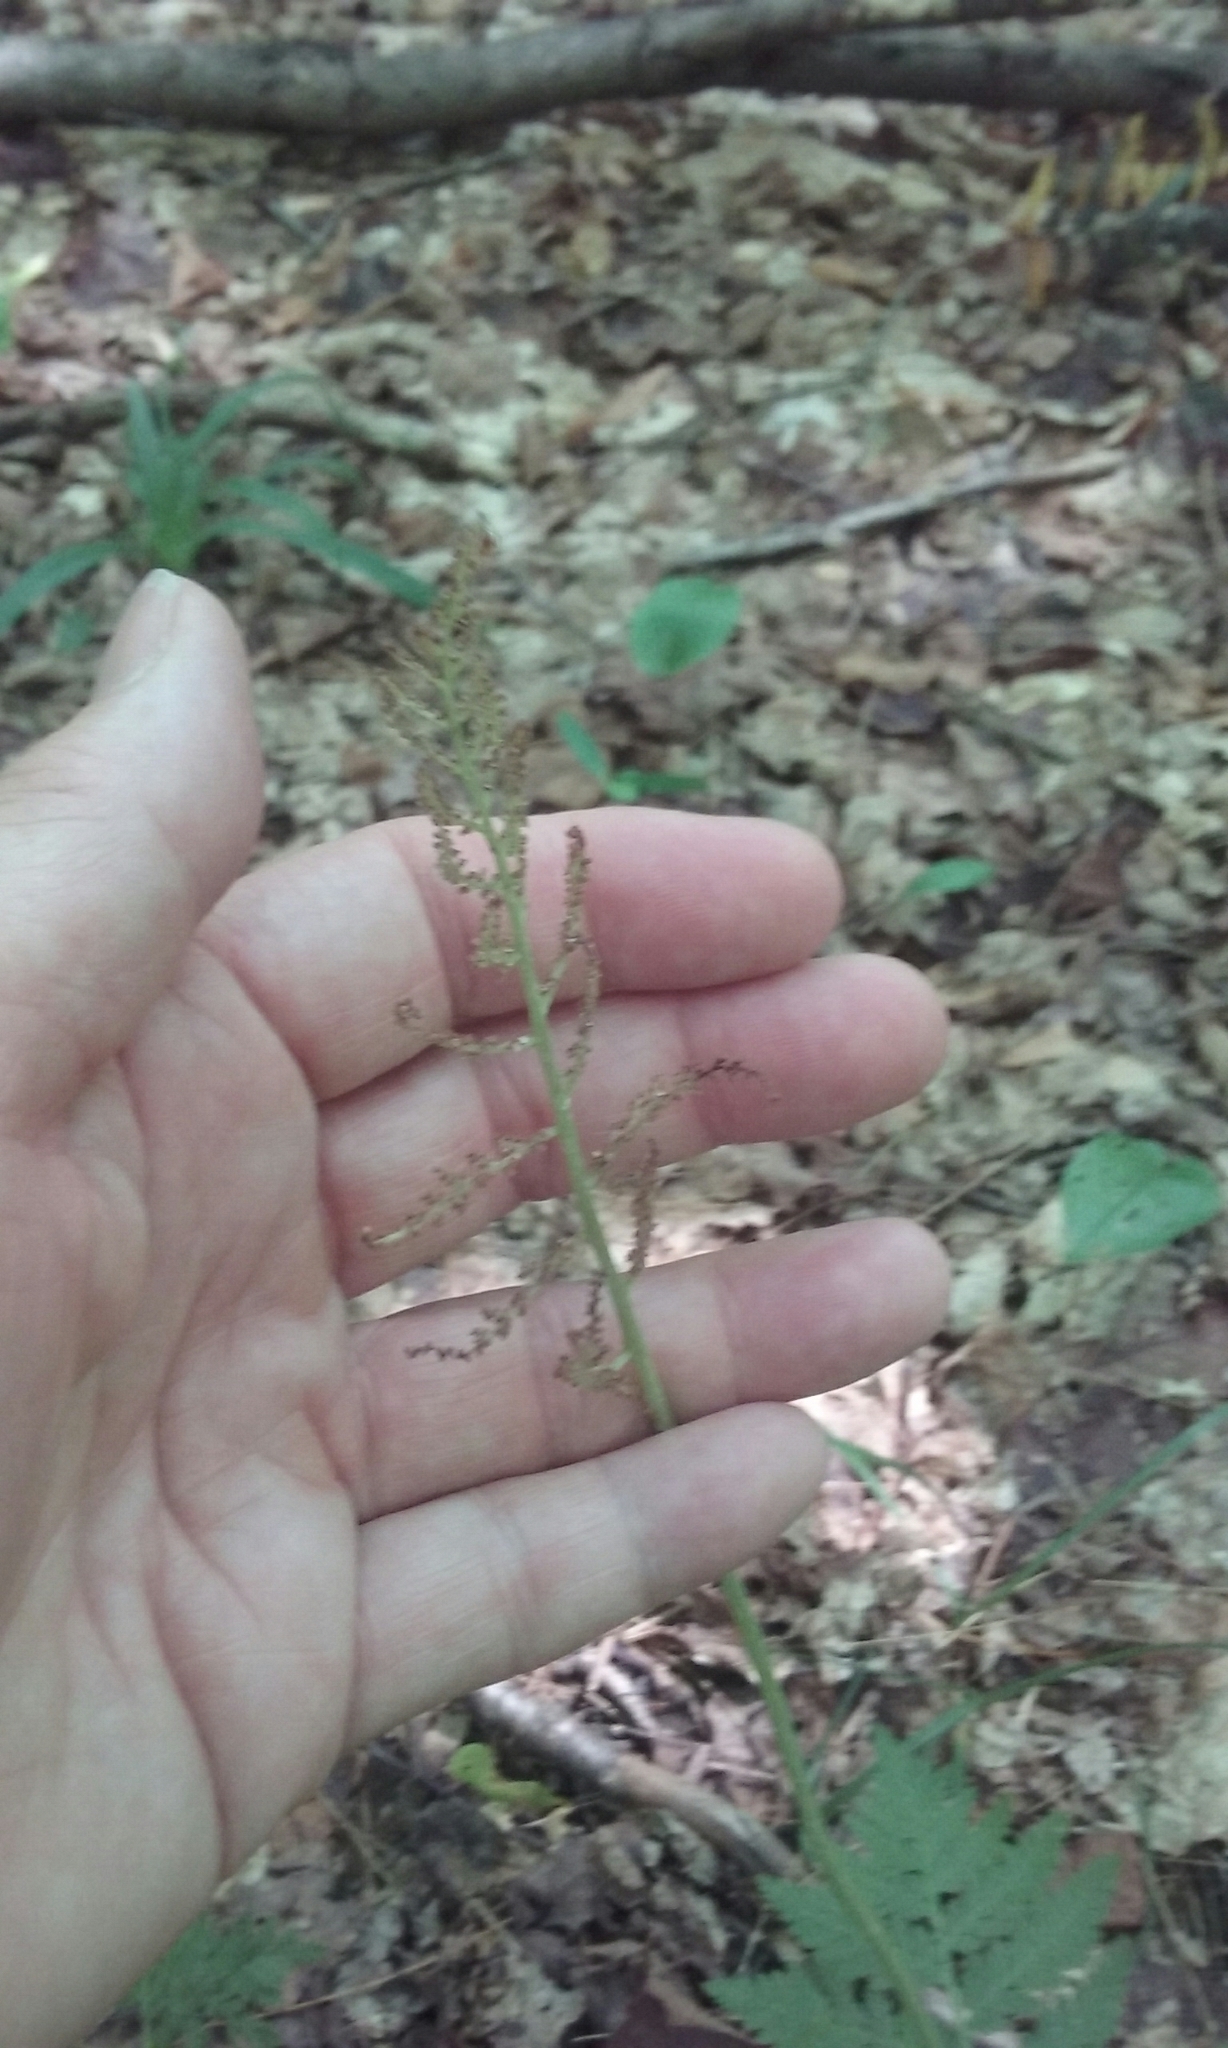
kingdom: Plantae
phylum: Tracheophyta
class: Polypodiopsida
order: Ophioglossales
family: Ophioglossaceae
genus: Botrypus
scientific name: Botrypus virginianus
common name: Common grapefern
